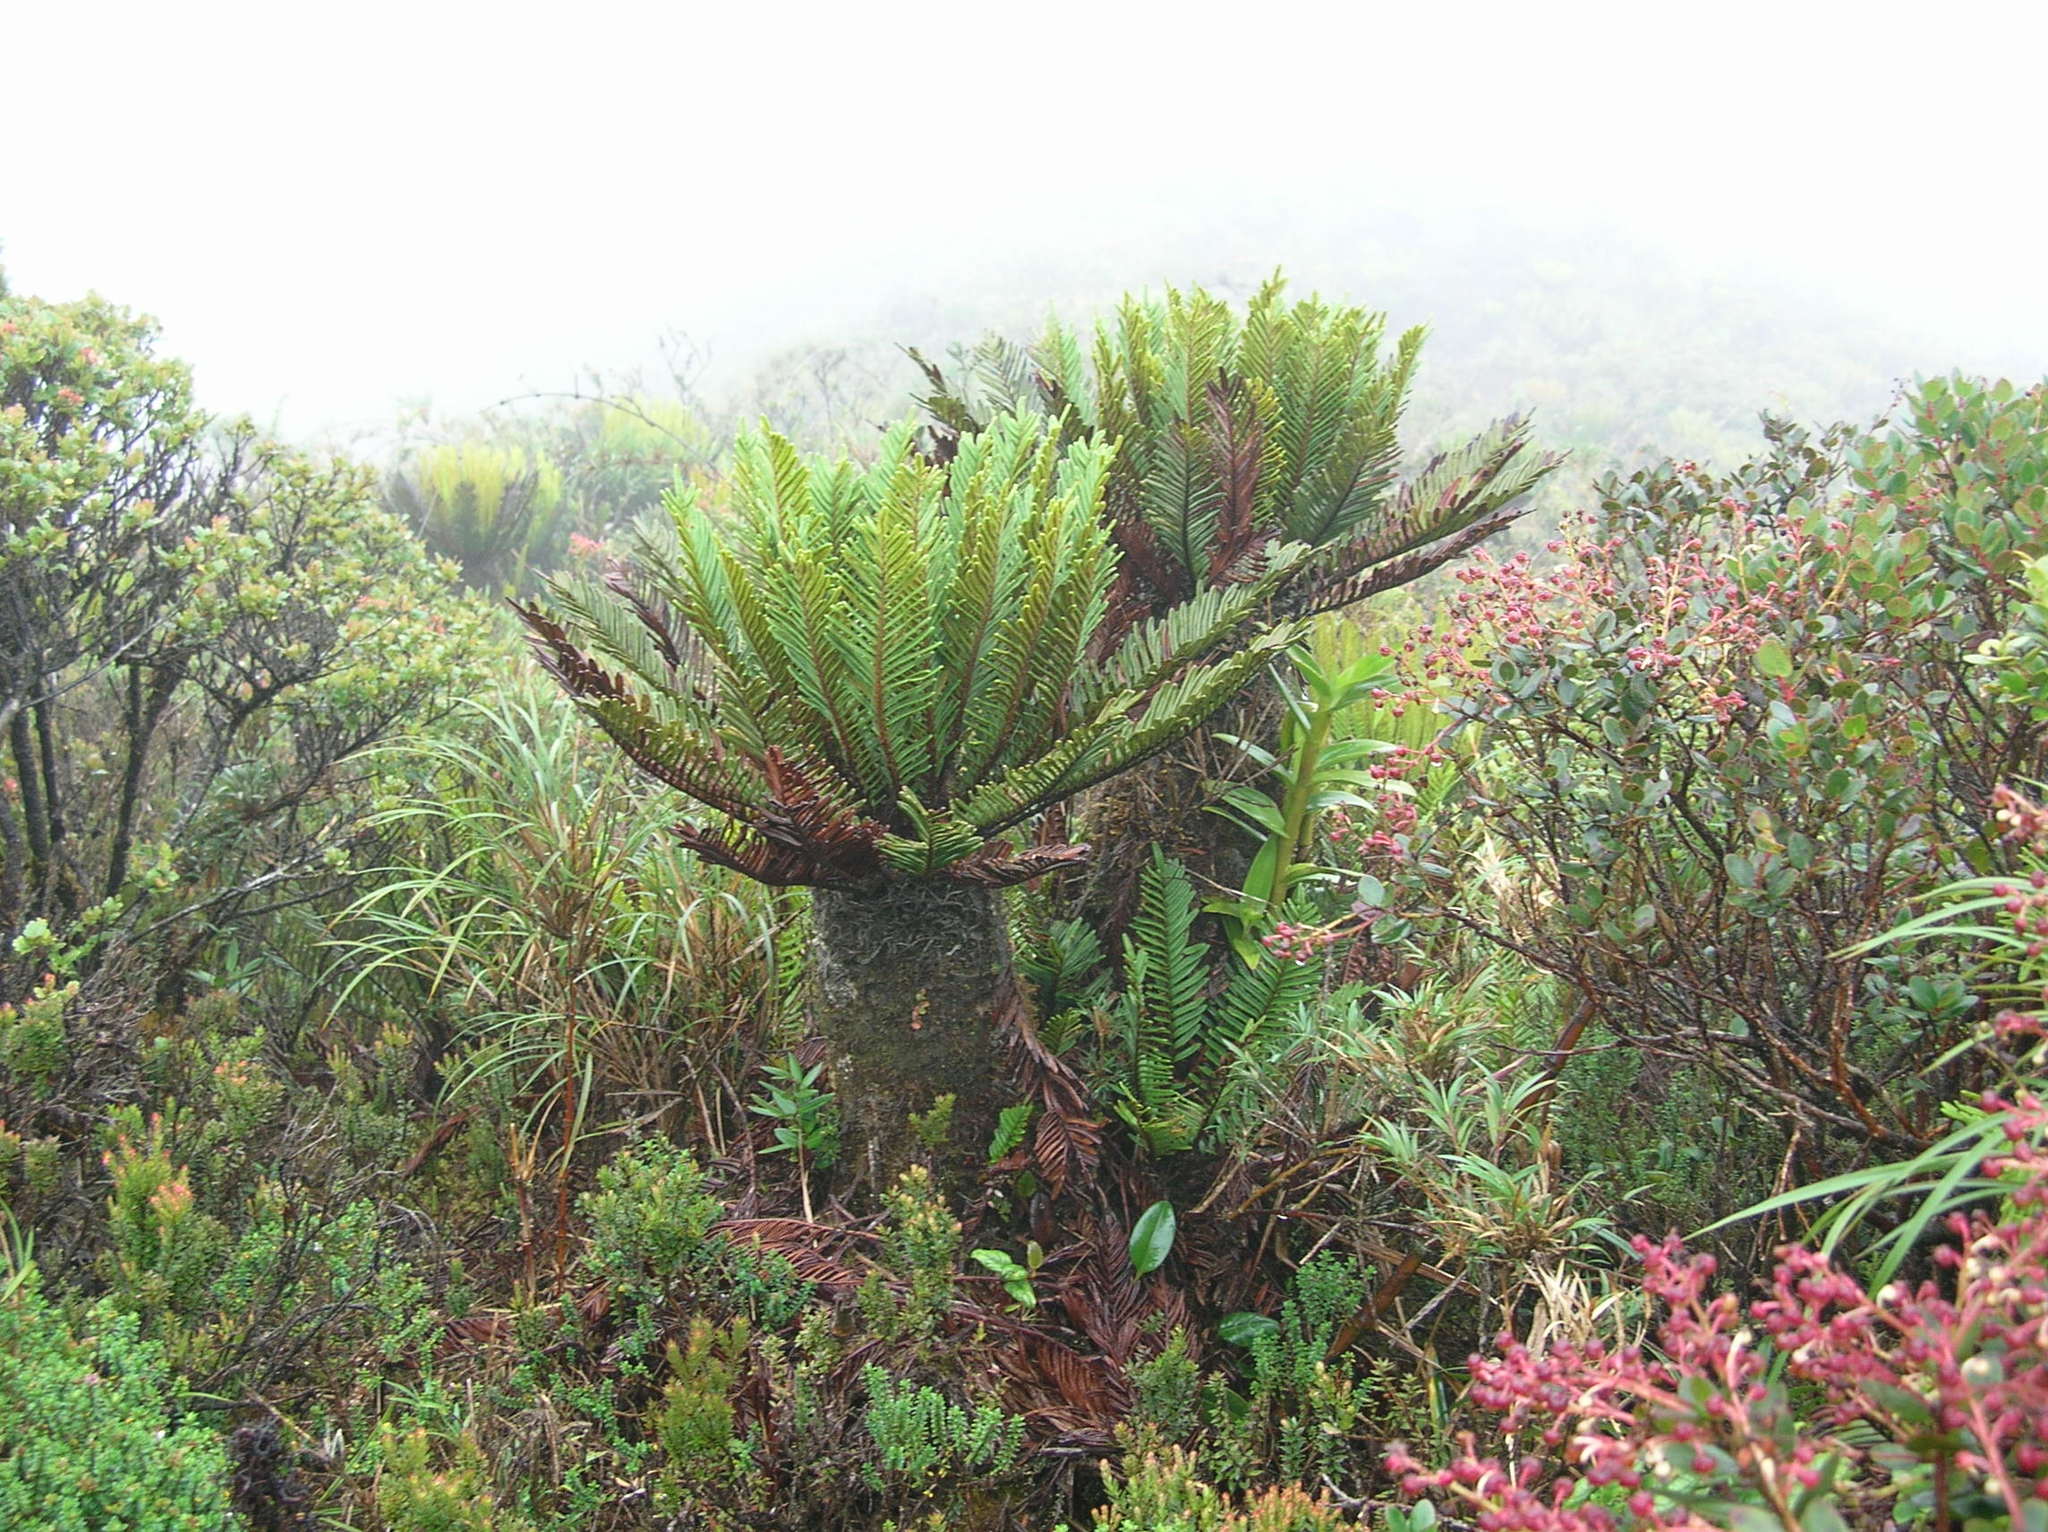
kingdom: Plantae
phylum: Tracheophyta
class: Polypodiopsida
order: Polypodiales
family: Blechnaceae
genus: Lomariocycas
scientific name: Lomariocycas aurata
